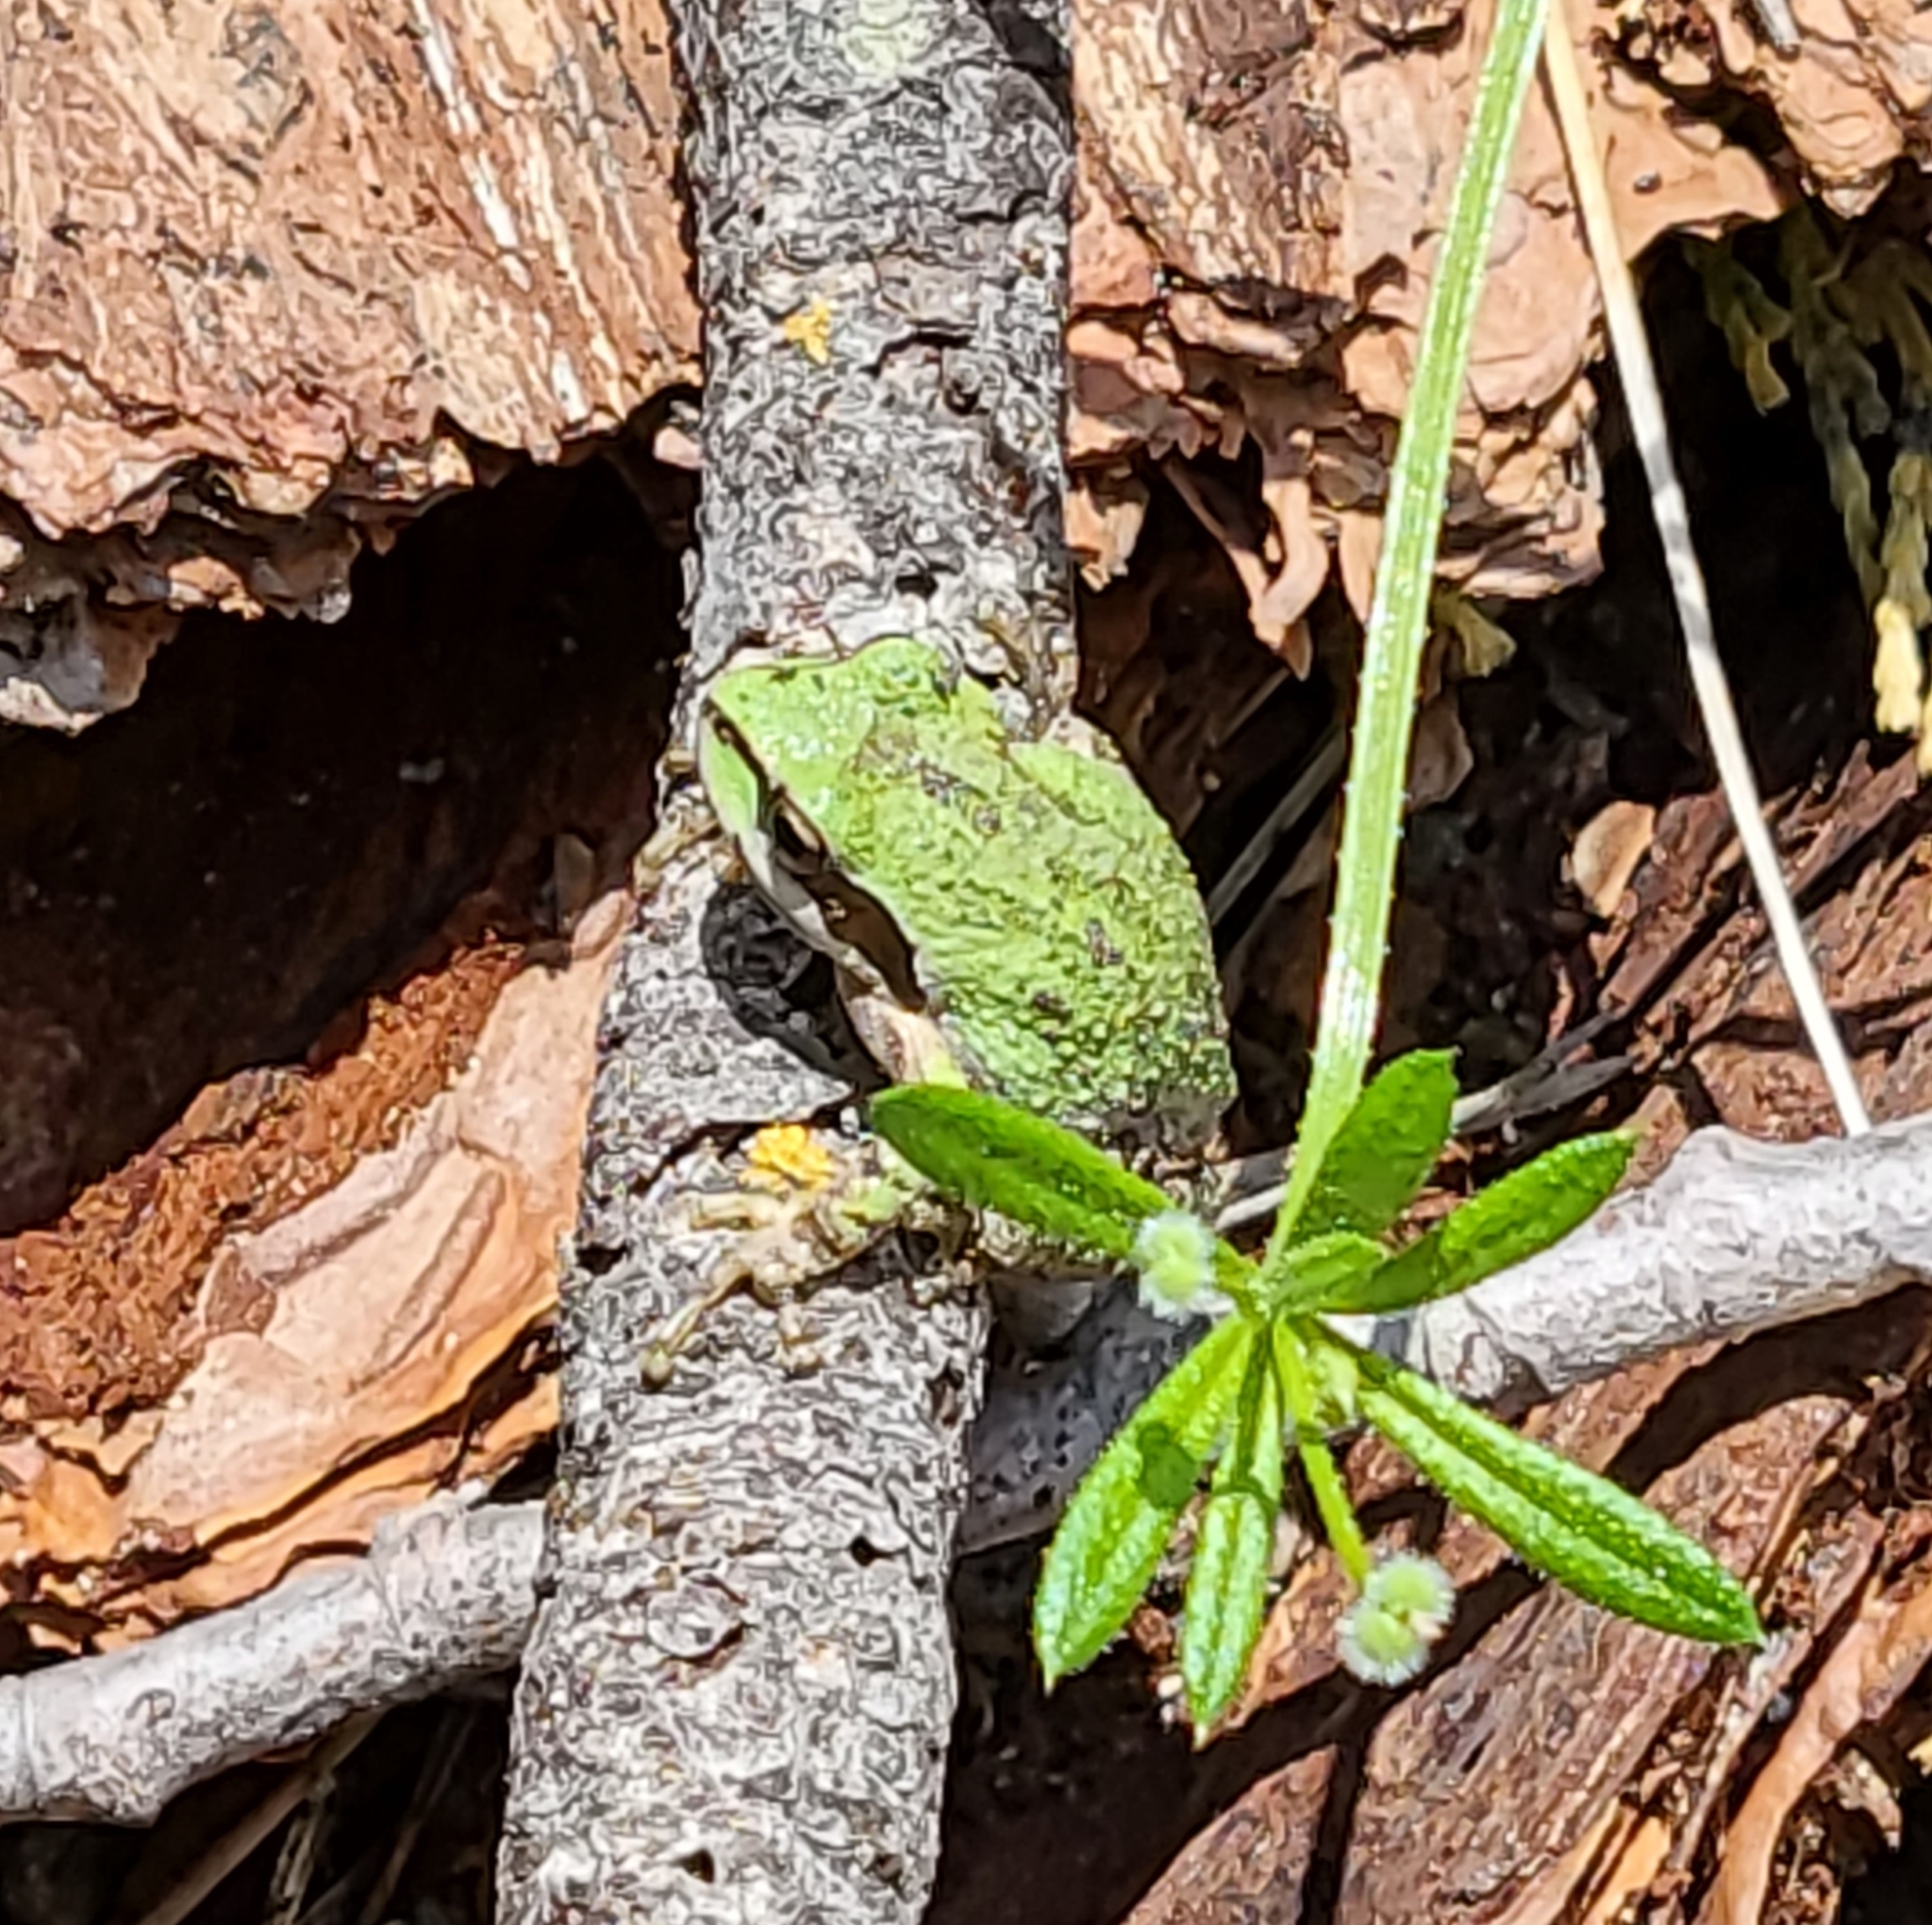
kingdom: Animalia
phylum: Chordata
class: Amphibia
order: Anura
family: Hylidae
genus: Pseudacris
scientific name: Pseudacris regilla
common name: Pacific chorus frog
